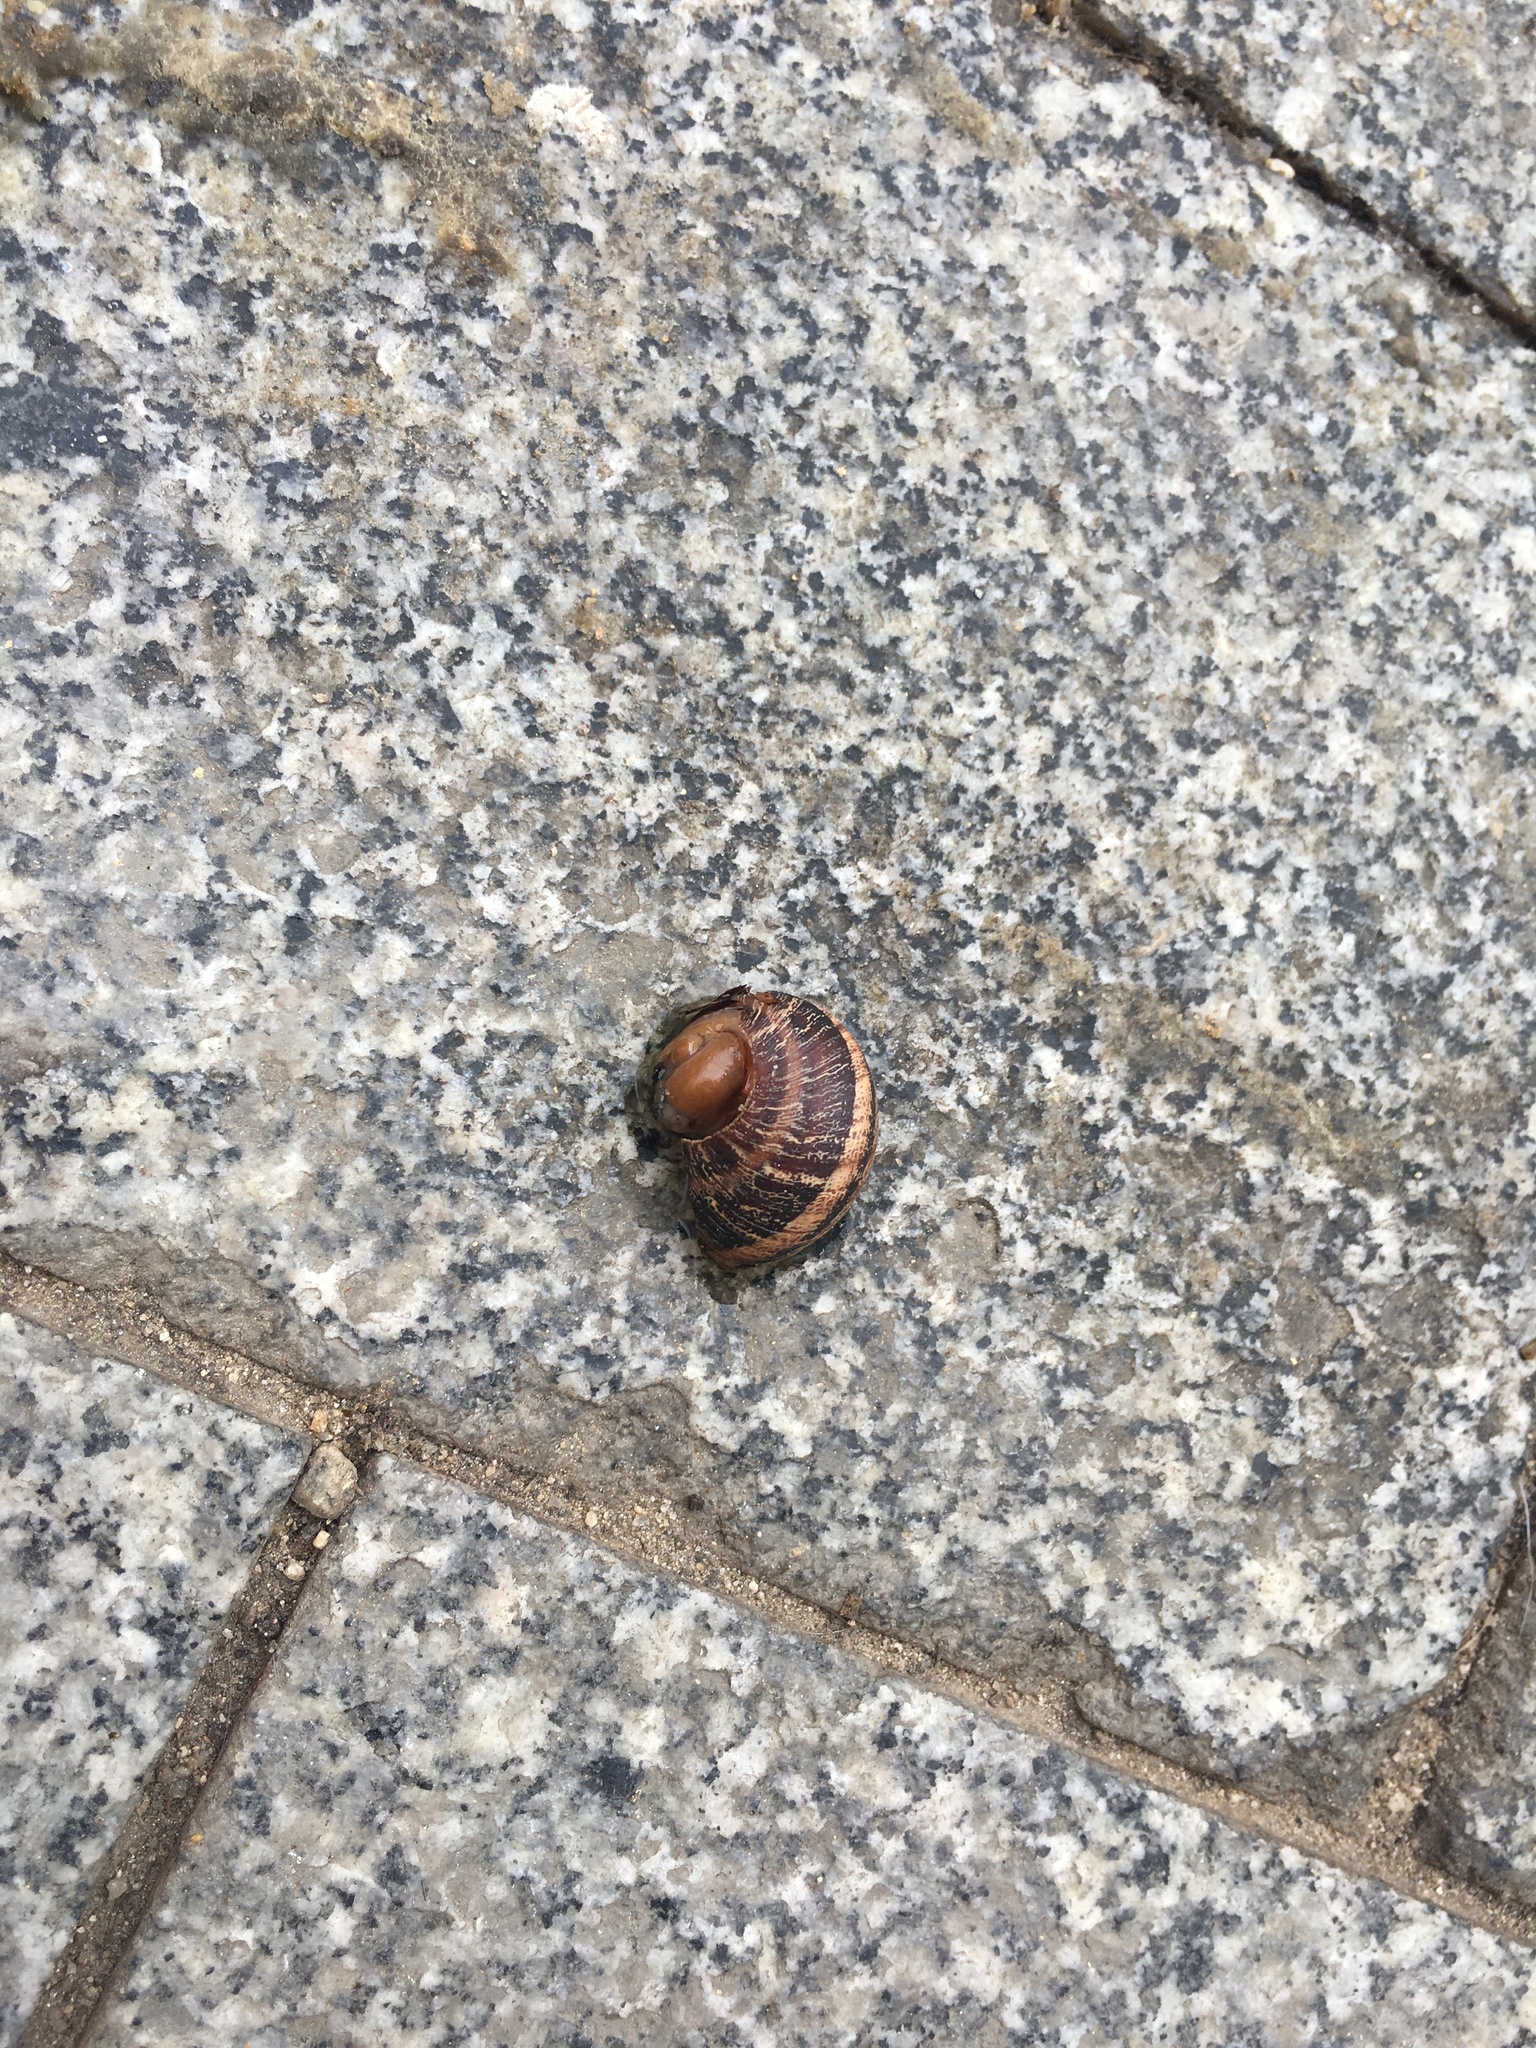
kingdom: Animalia
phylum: Mollusca
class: Gastropoda
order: Stylommatophora
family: Helicidae
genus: Cornu
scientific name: Cornu aspersum
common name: Brown garden snail
